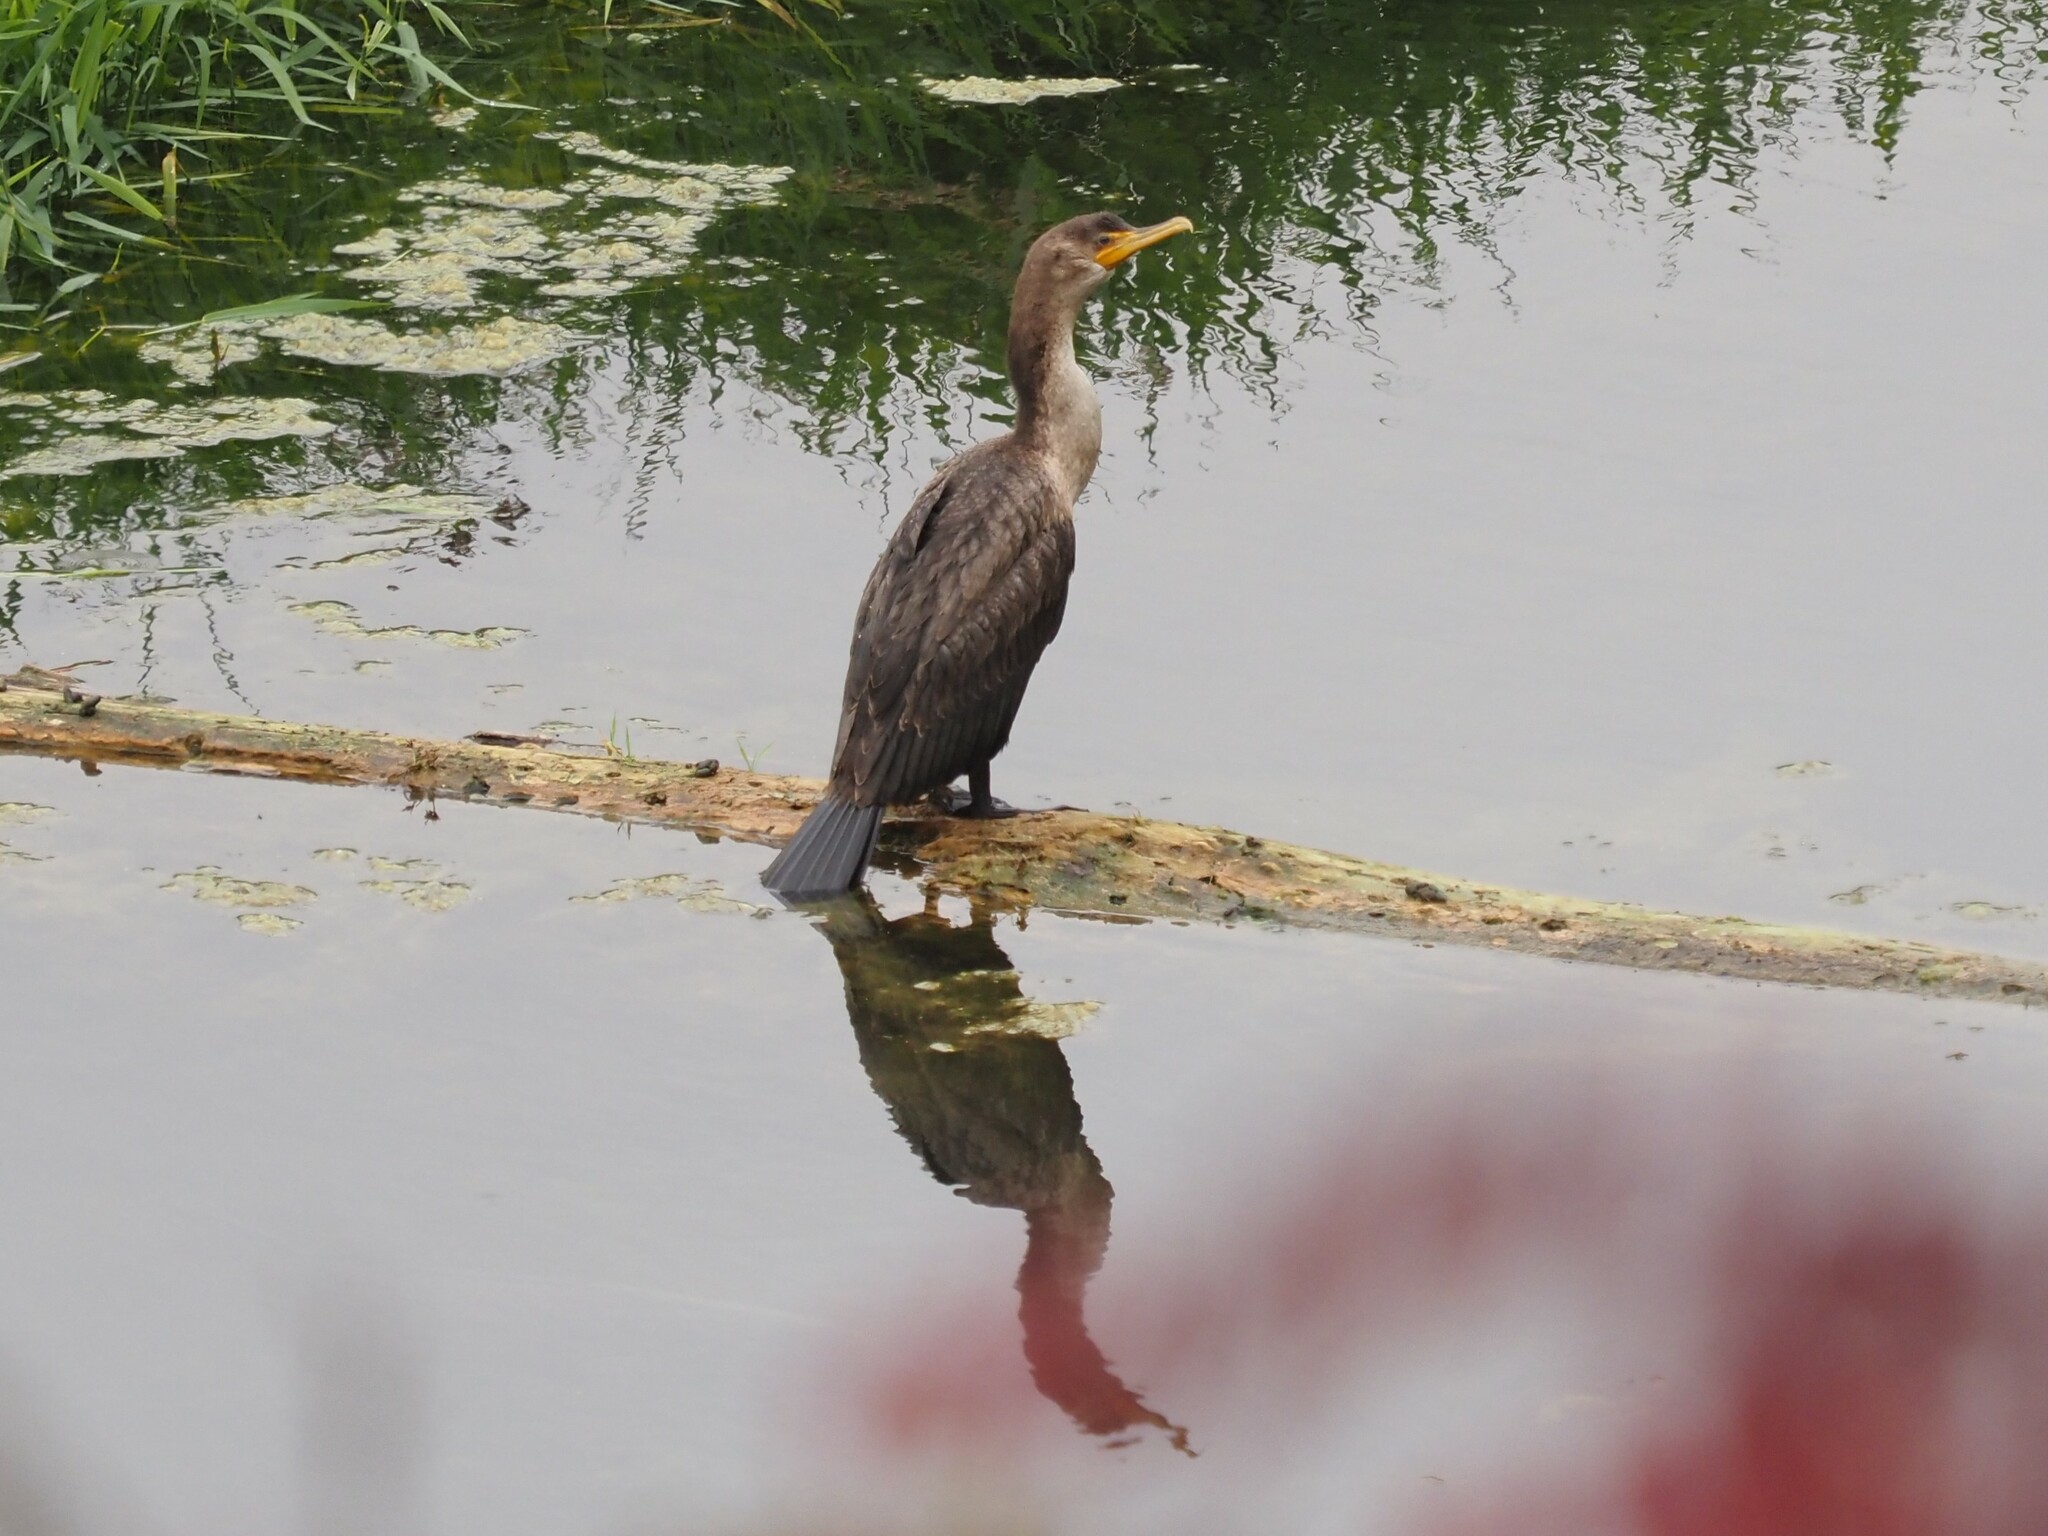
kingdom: Animalia
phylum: Chordata
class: Aves
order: Suliformes
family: Phalacrocoracidae
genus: Phalacrocorax
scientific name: Phalacrocorax auritus
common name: Double-crested cormorant
